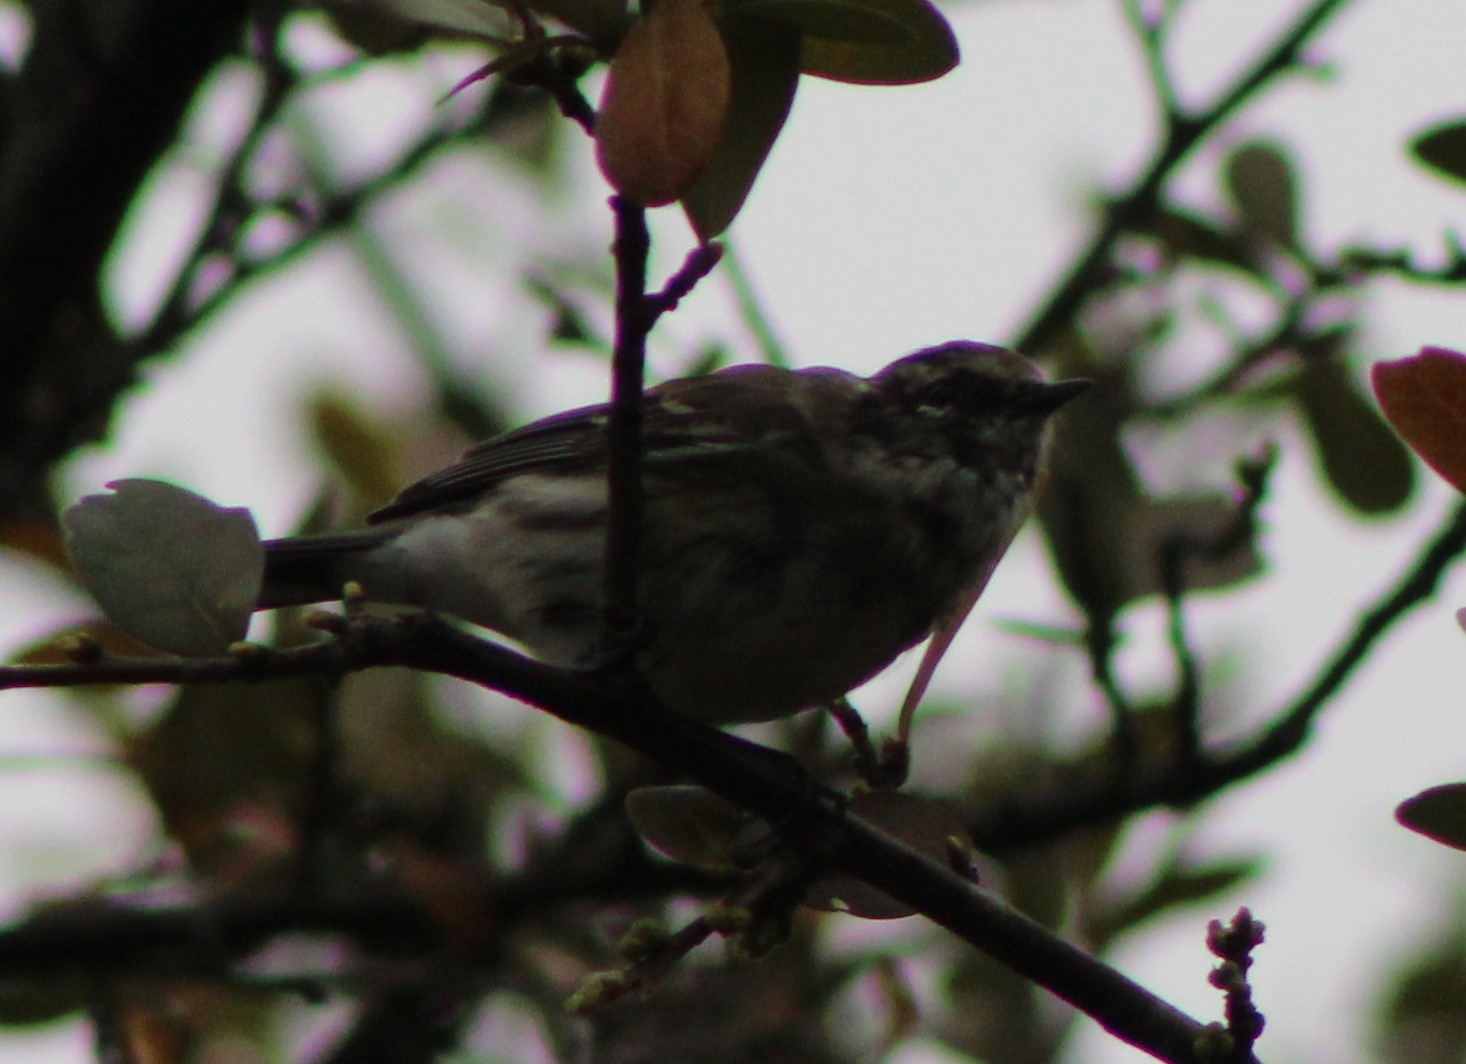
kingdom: Animalia
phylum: Chordata
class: Aves
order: Passeriformes
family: Parulidae
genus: Setophaga
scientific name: Setophaga coronata
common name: Myrtle warbler
